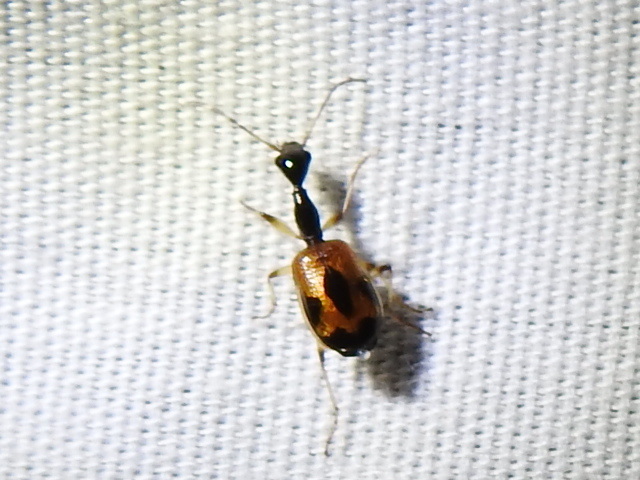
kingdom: Animalia
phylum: Arthropoda
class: Insecta
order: Coleoptera
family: Carabidae
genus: Colliuris
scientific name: Colliuris pensylvanica
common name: Long-necked ground beetle
